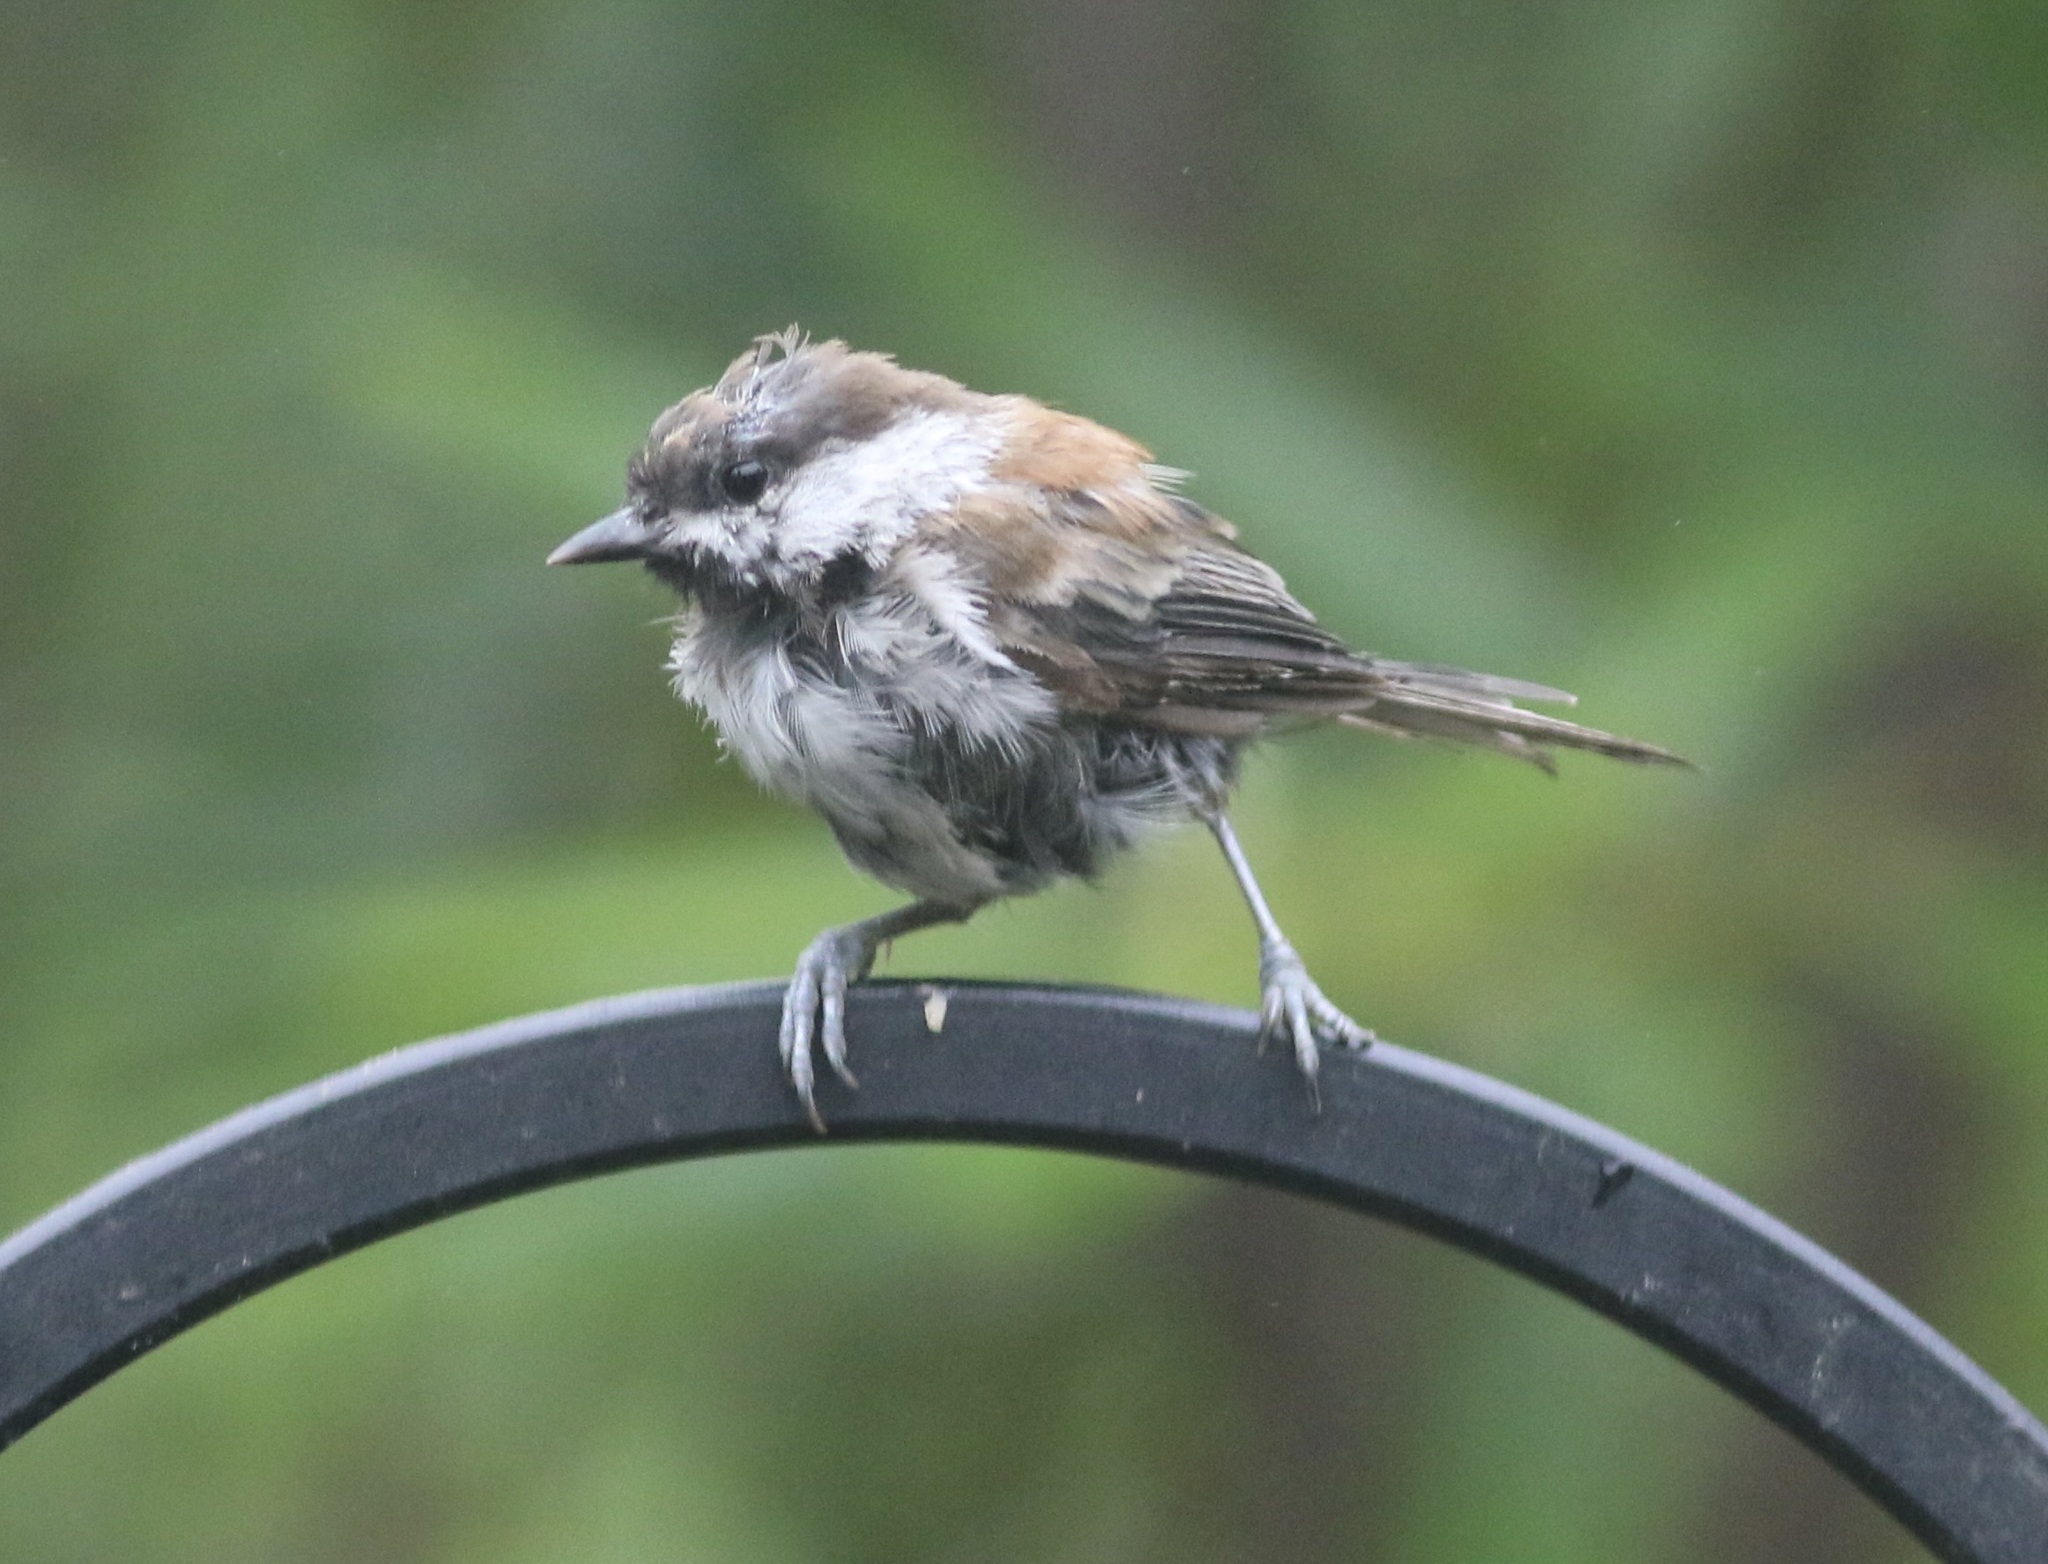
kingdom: Animalia
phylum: Chordata
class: Aves
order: Passeriformes
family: Paridae
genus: Poecile
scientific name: Poecile rufescens
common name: Chestnut-backed chickadee
